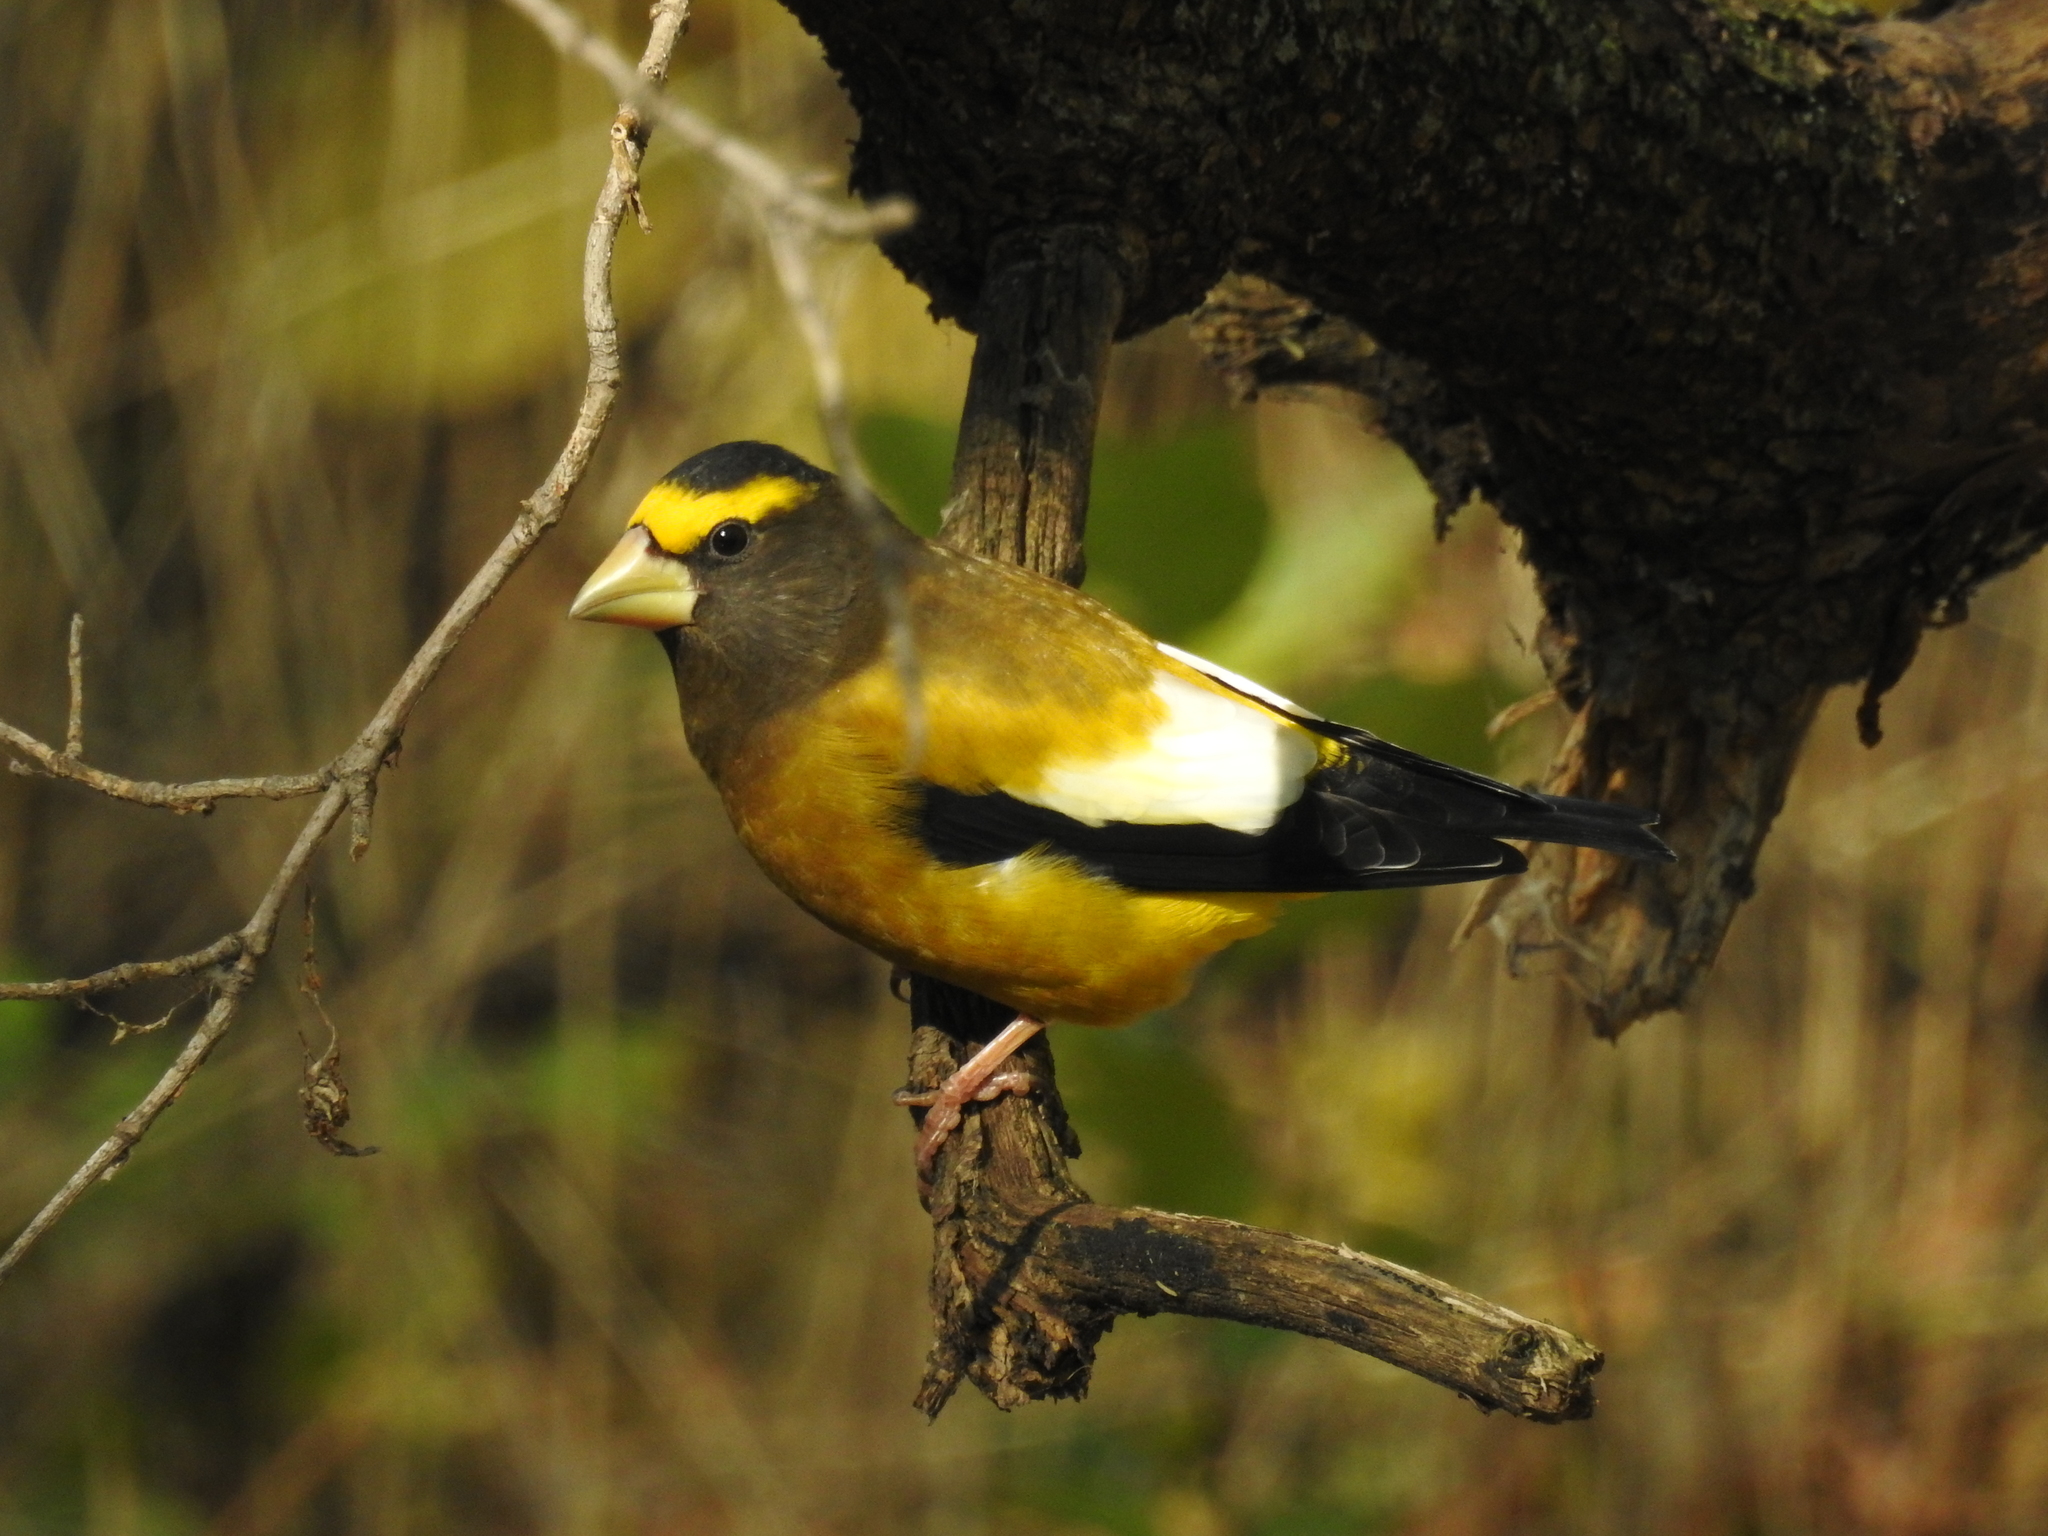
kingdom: Animalia
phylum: Chordata
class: Aves
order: Passeriformes
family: Fringillidae
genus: Hesperiphona
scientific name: Hesperiphona vespertina
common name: Evening grosbeak
